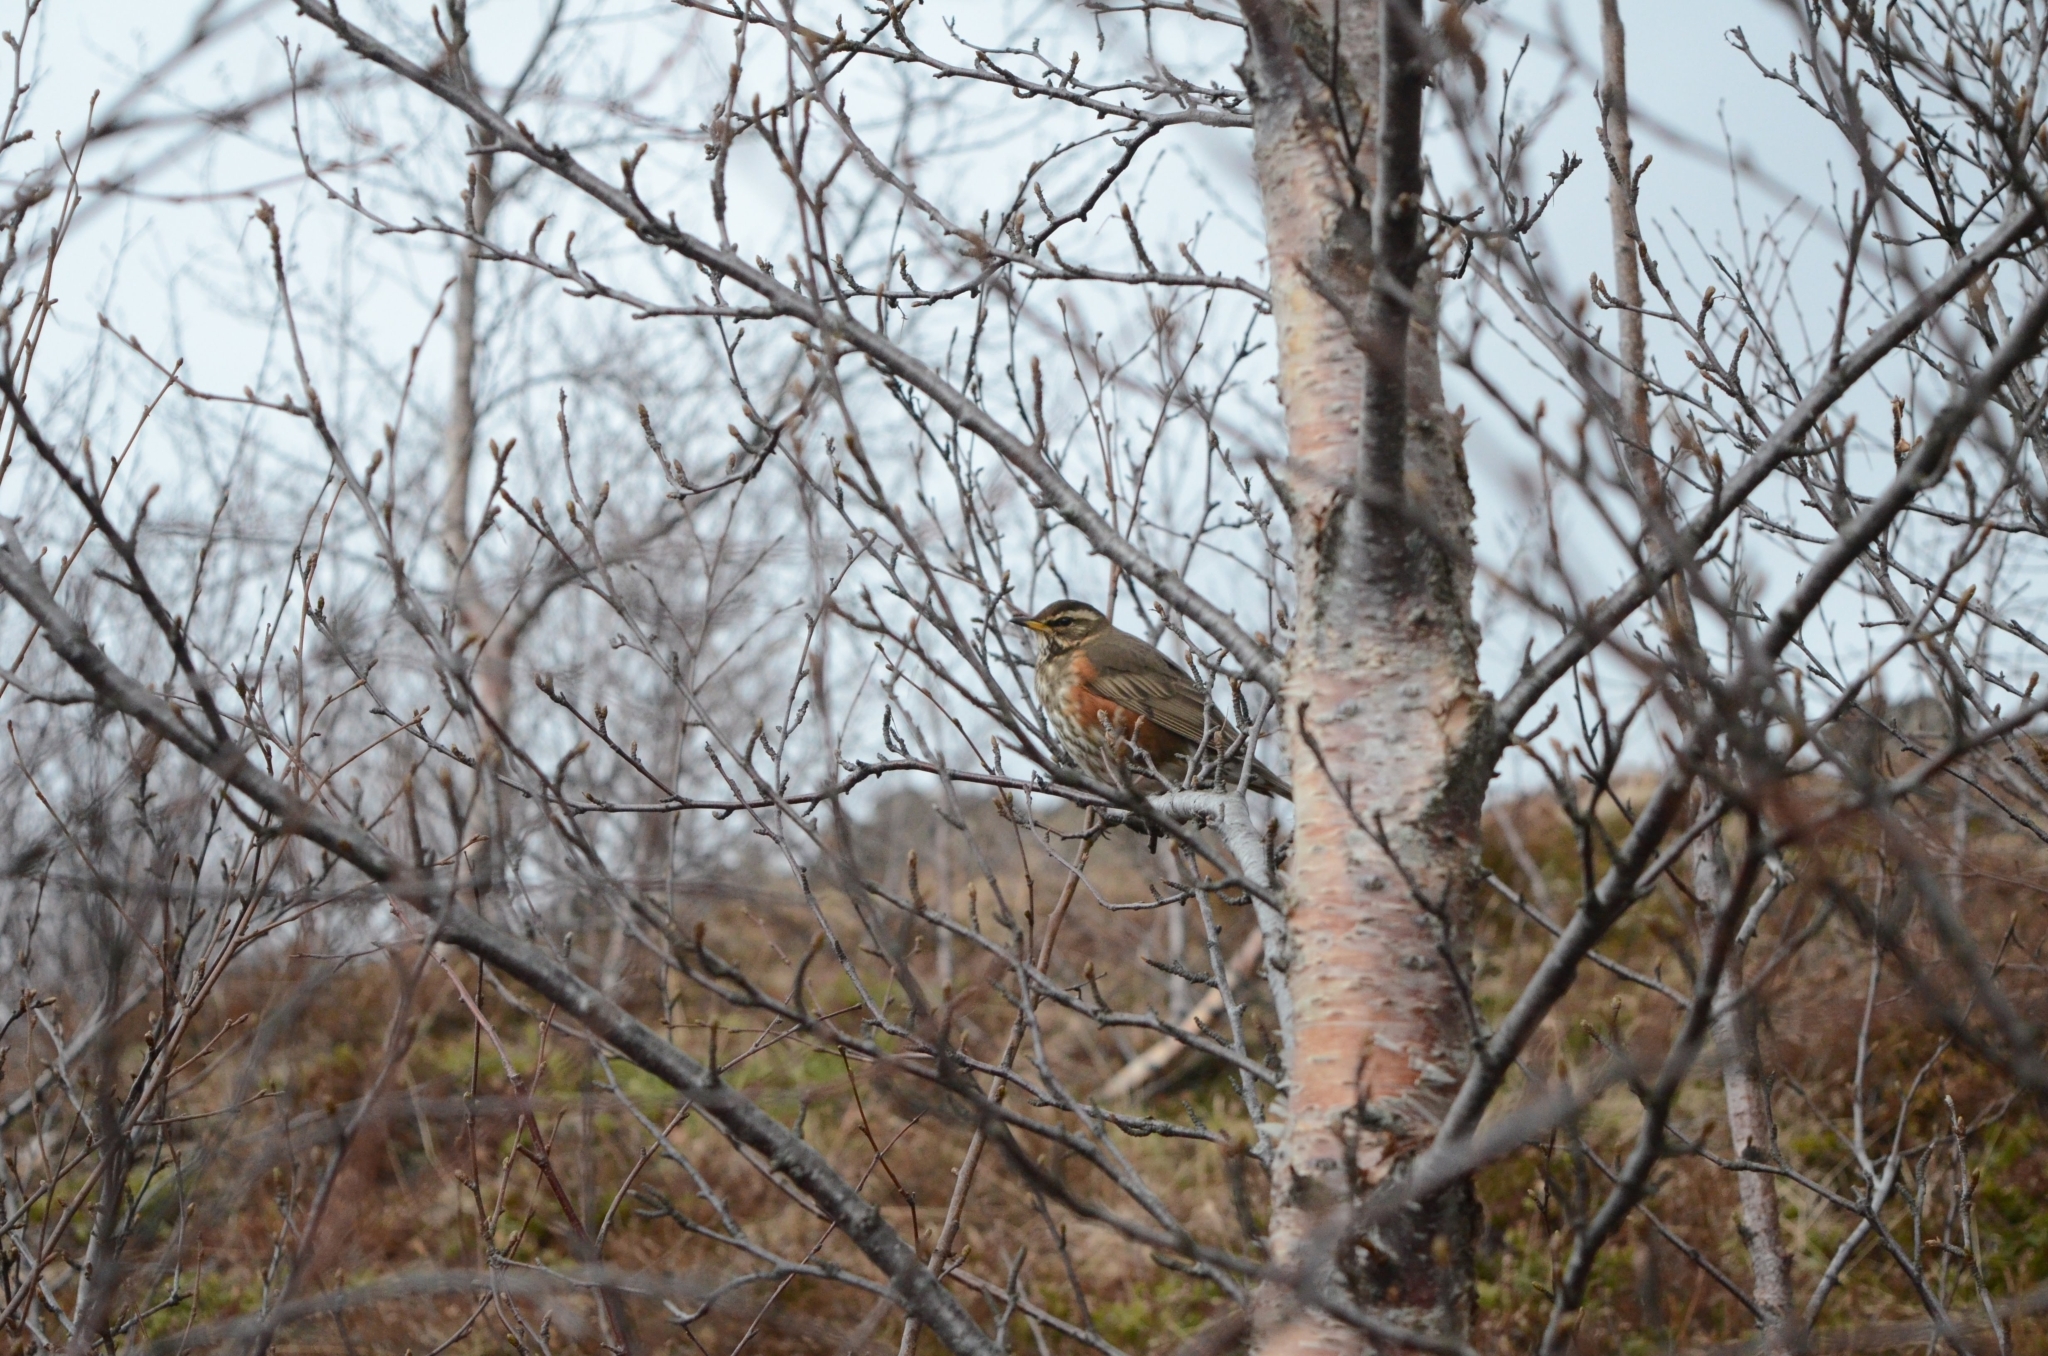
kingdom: Animalia
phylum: Chordata
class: Aves
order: Passeriformes
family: Turdidae
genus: Turdus
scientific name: Turdus iliacus
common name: Redwing
